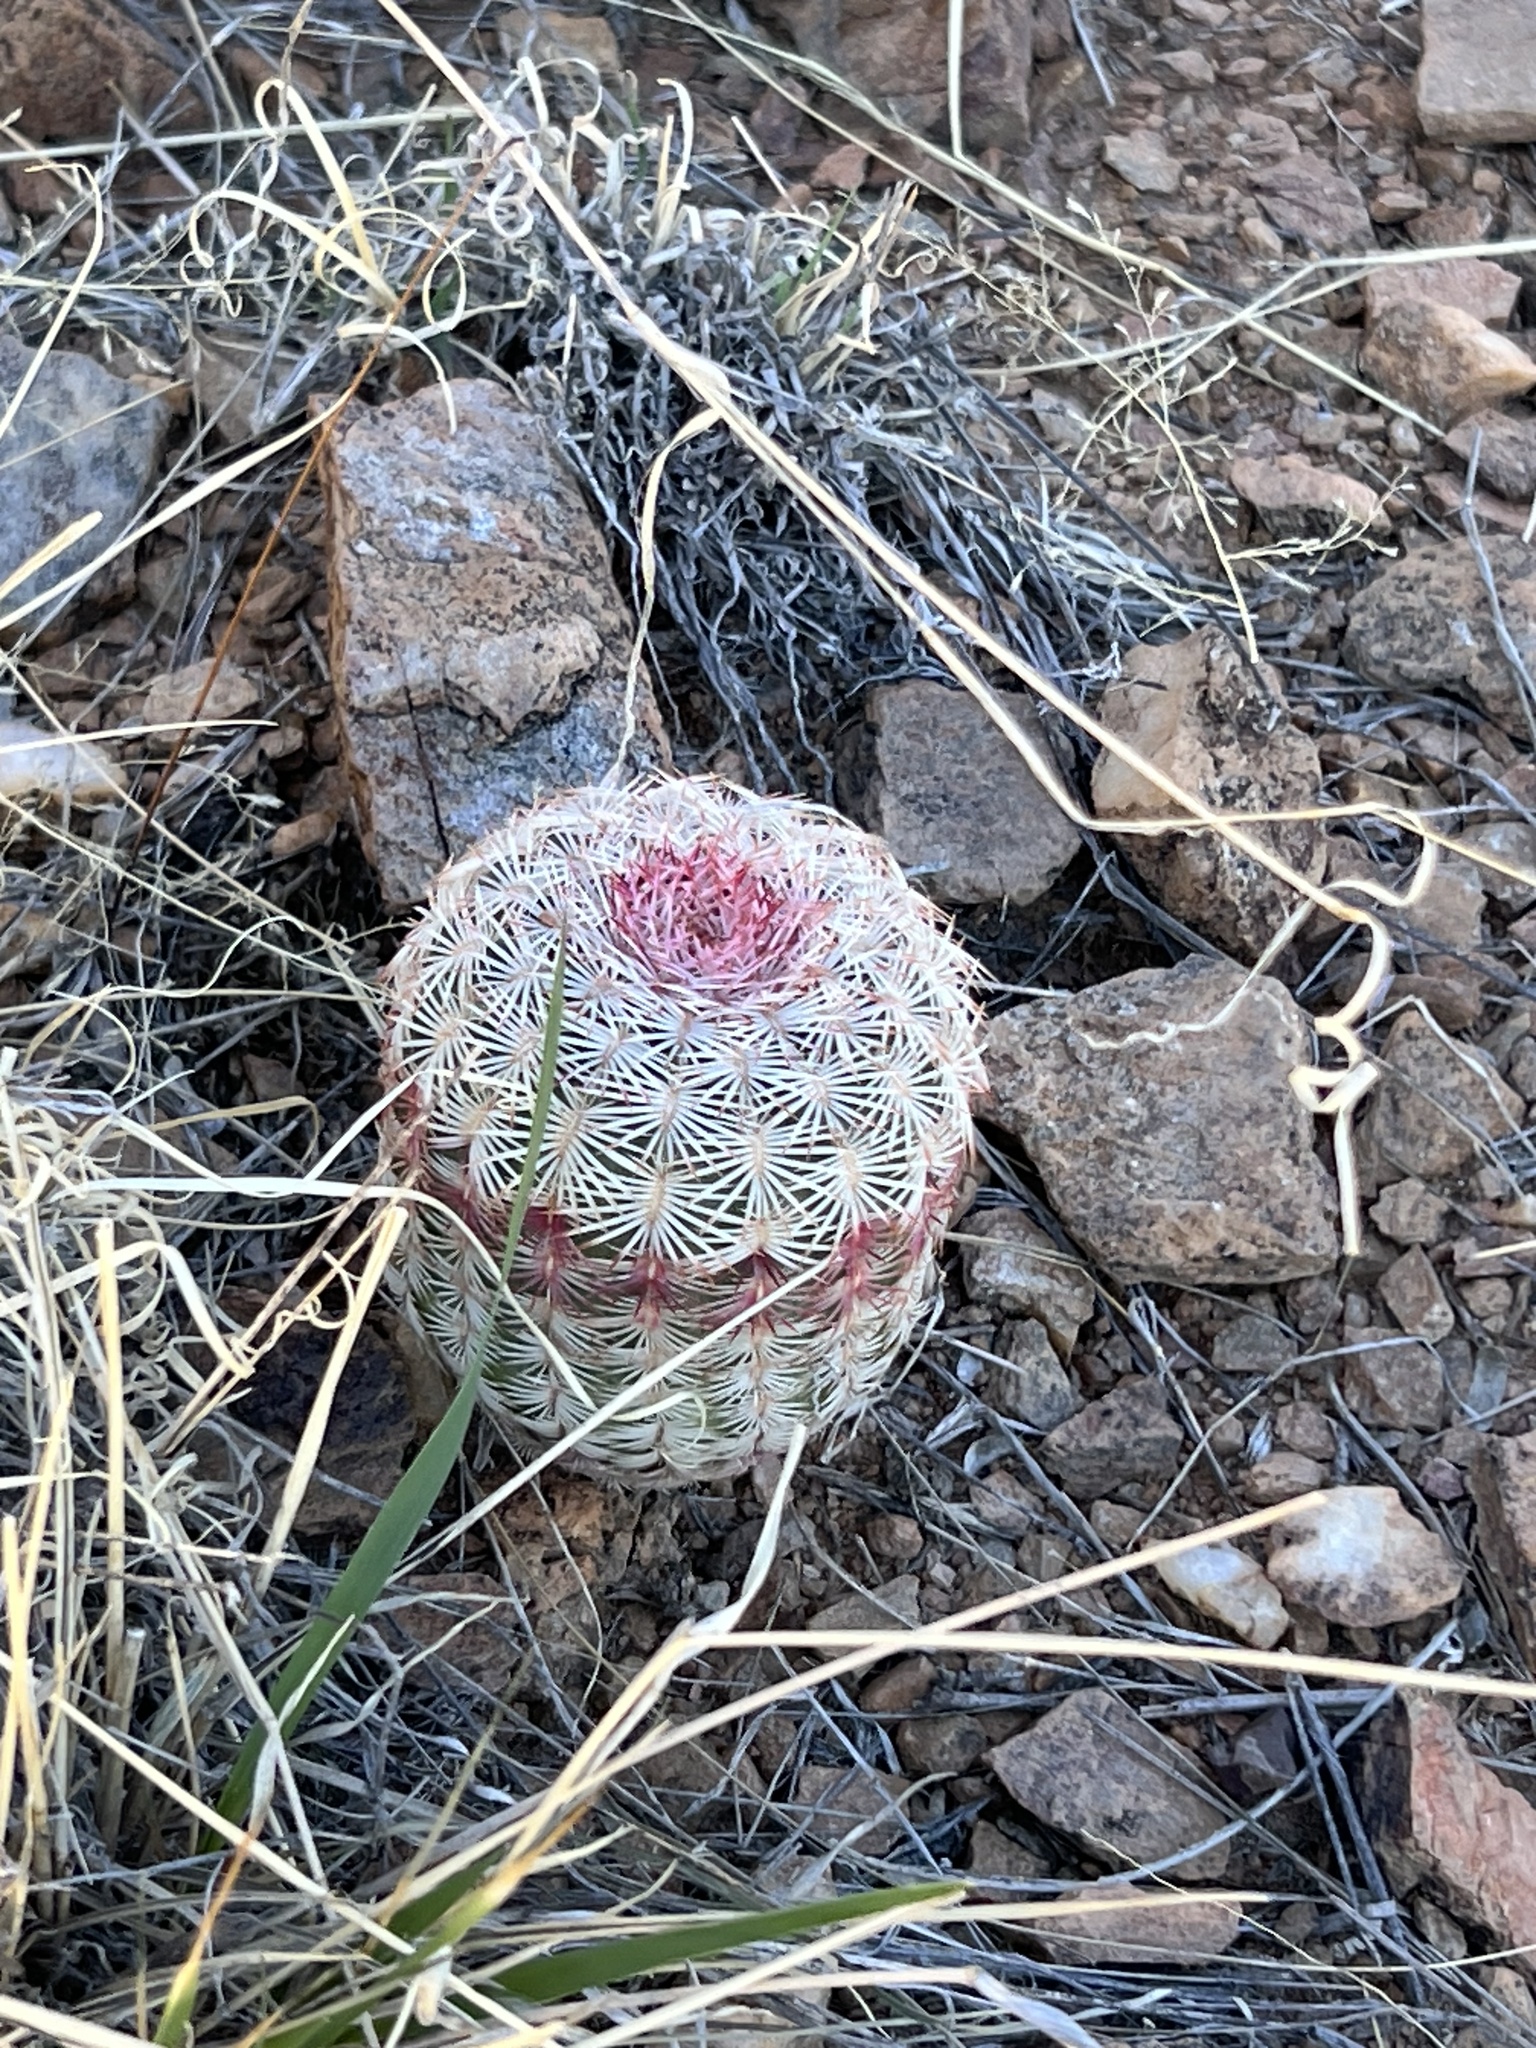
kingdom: Plantae
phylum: Tracheophyta
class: Magnoliopsida
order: Caryophyllales
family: Cactaceae
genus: Echinocereus
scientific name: Echinocereus rigidissimus
